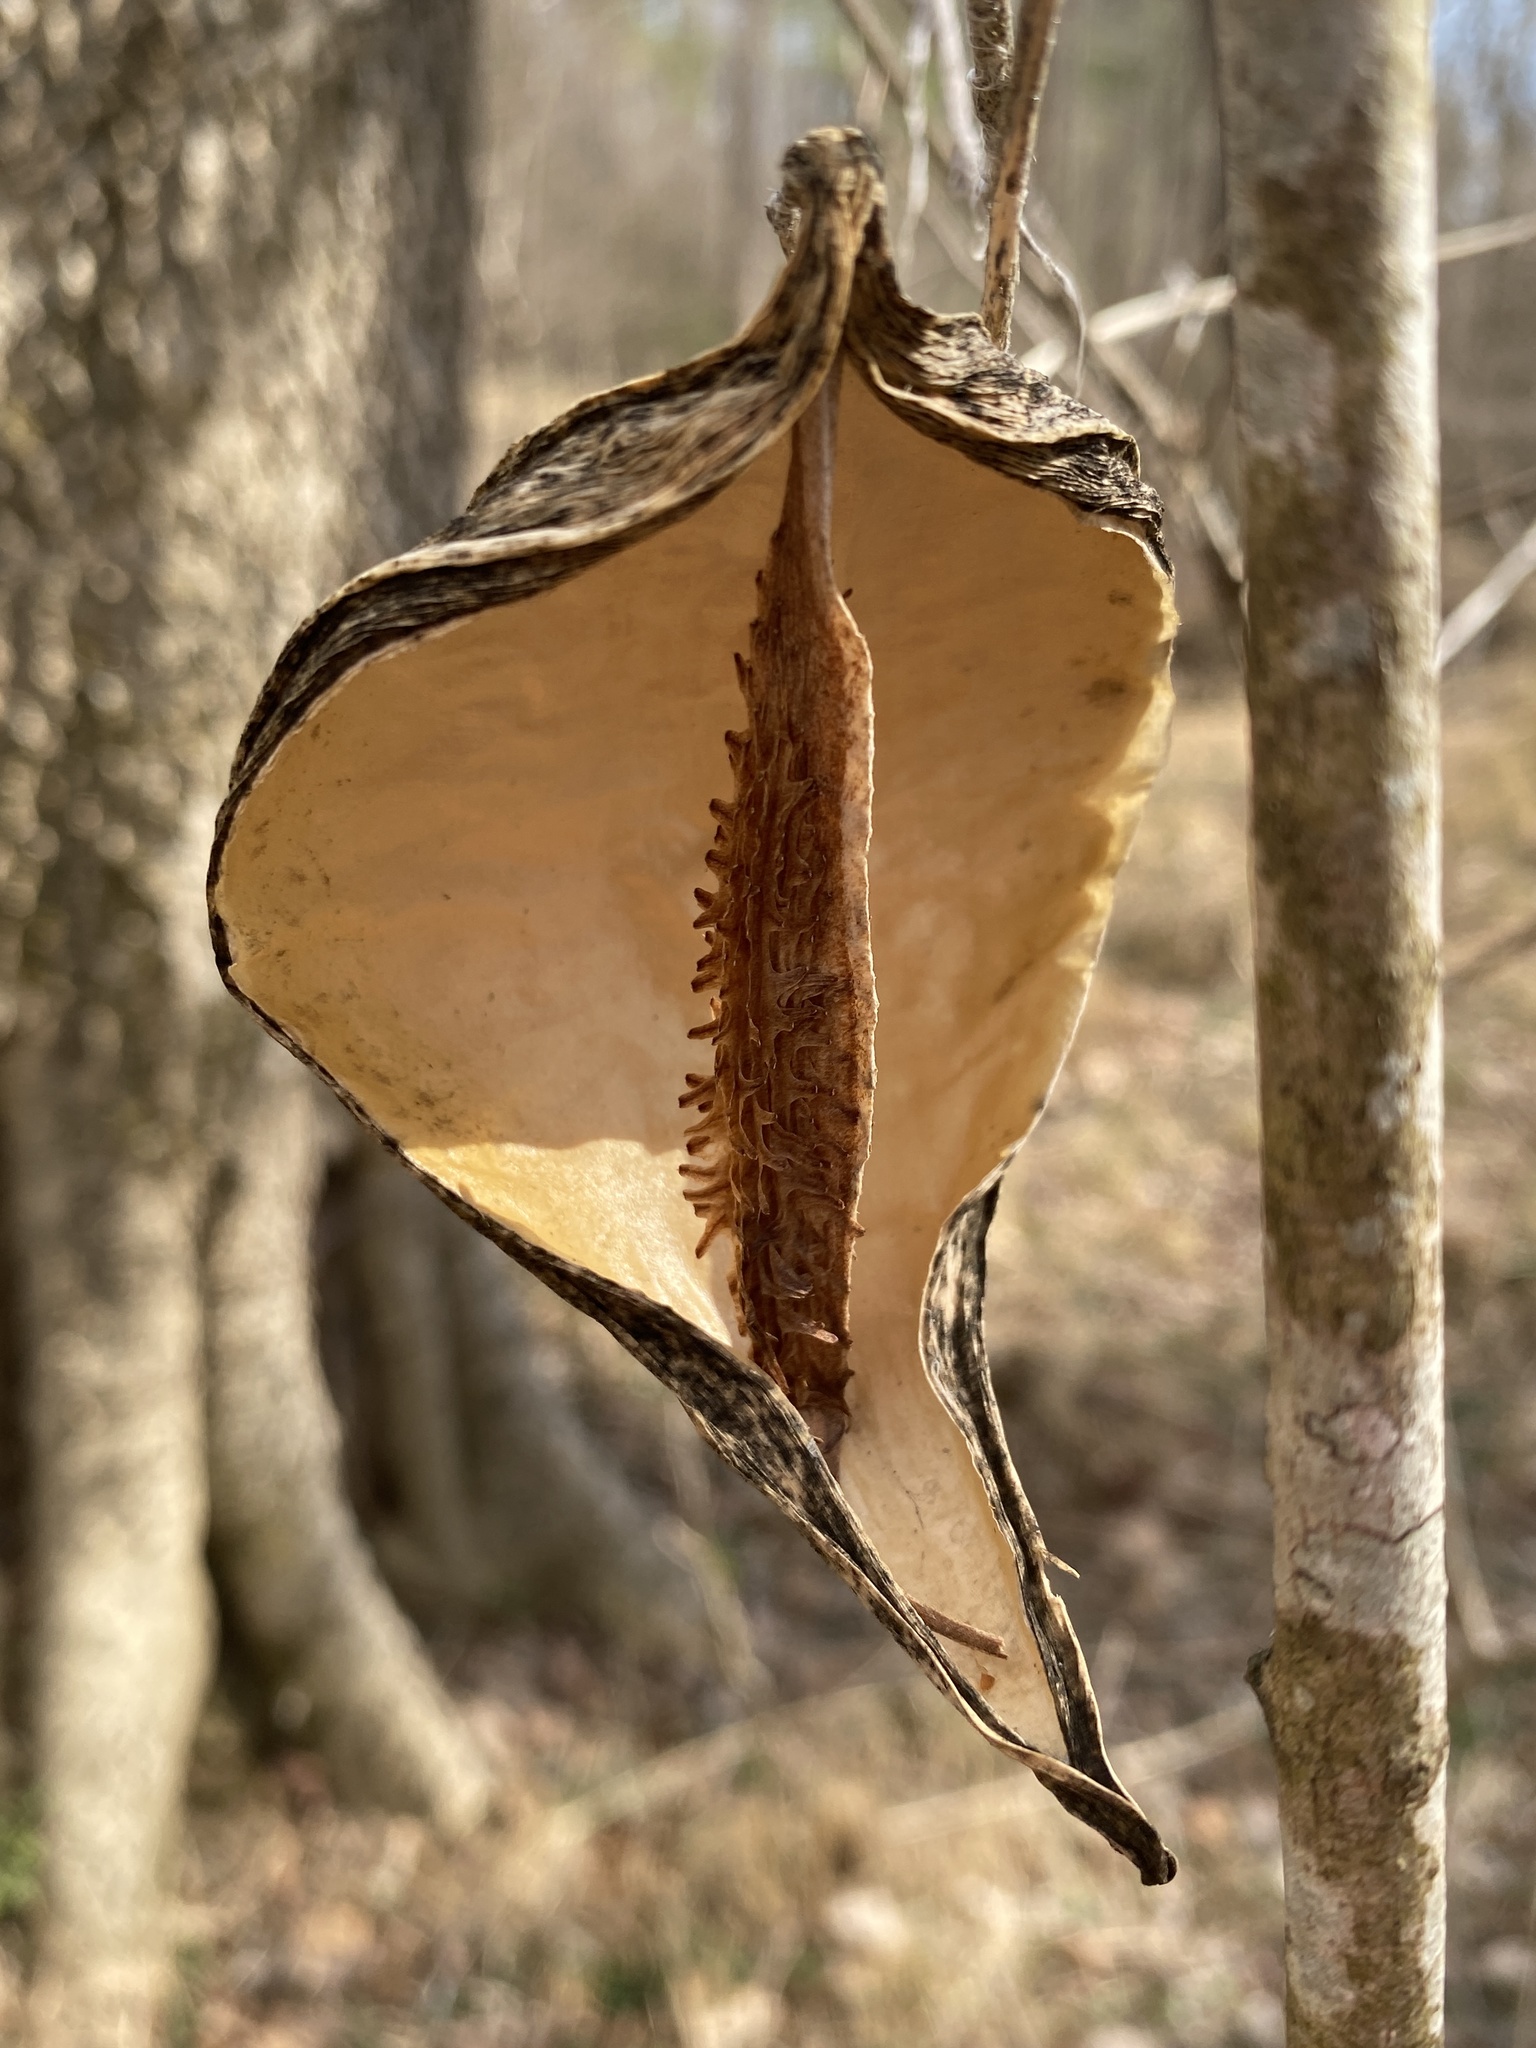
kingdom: Plantae
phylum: Tracheophyta
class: Magnoliopsida
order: Gentianales
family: Apocynaceae
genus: Gonolobus
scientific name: Gonolobus suberosus
